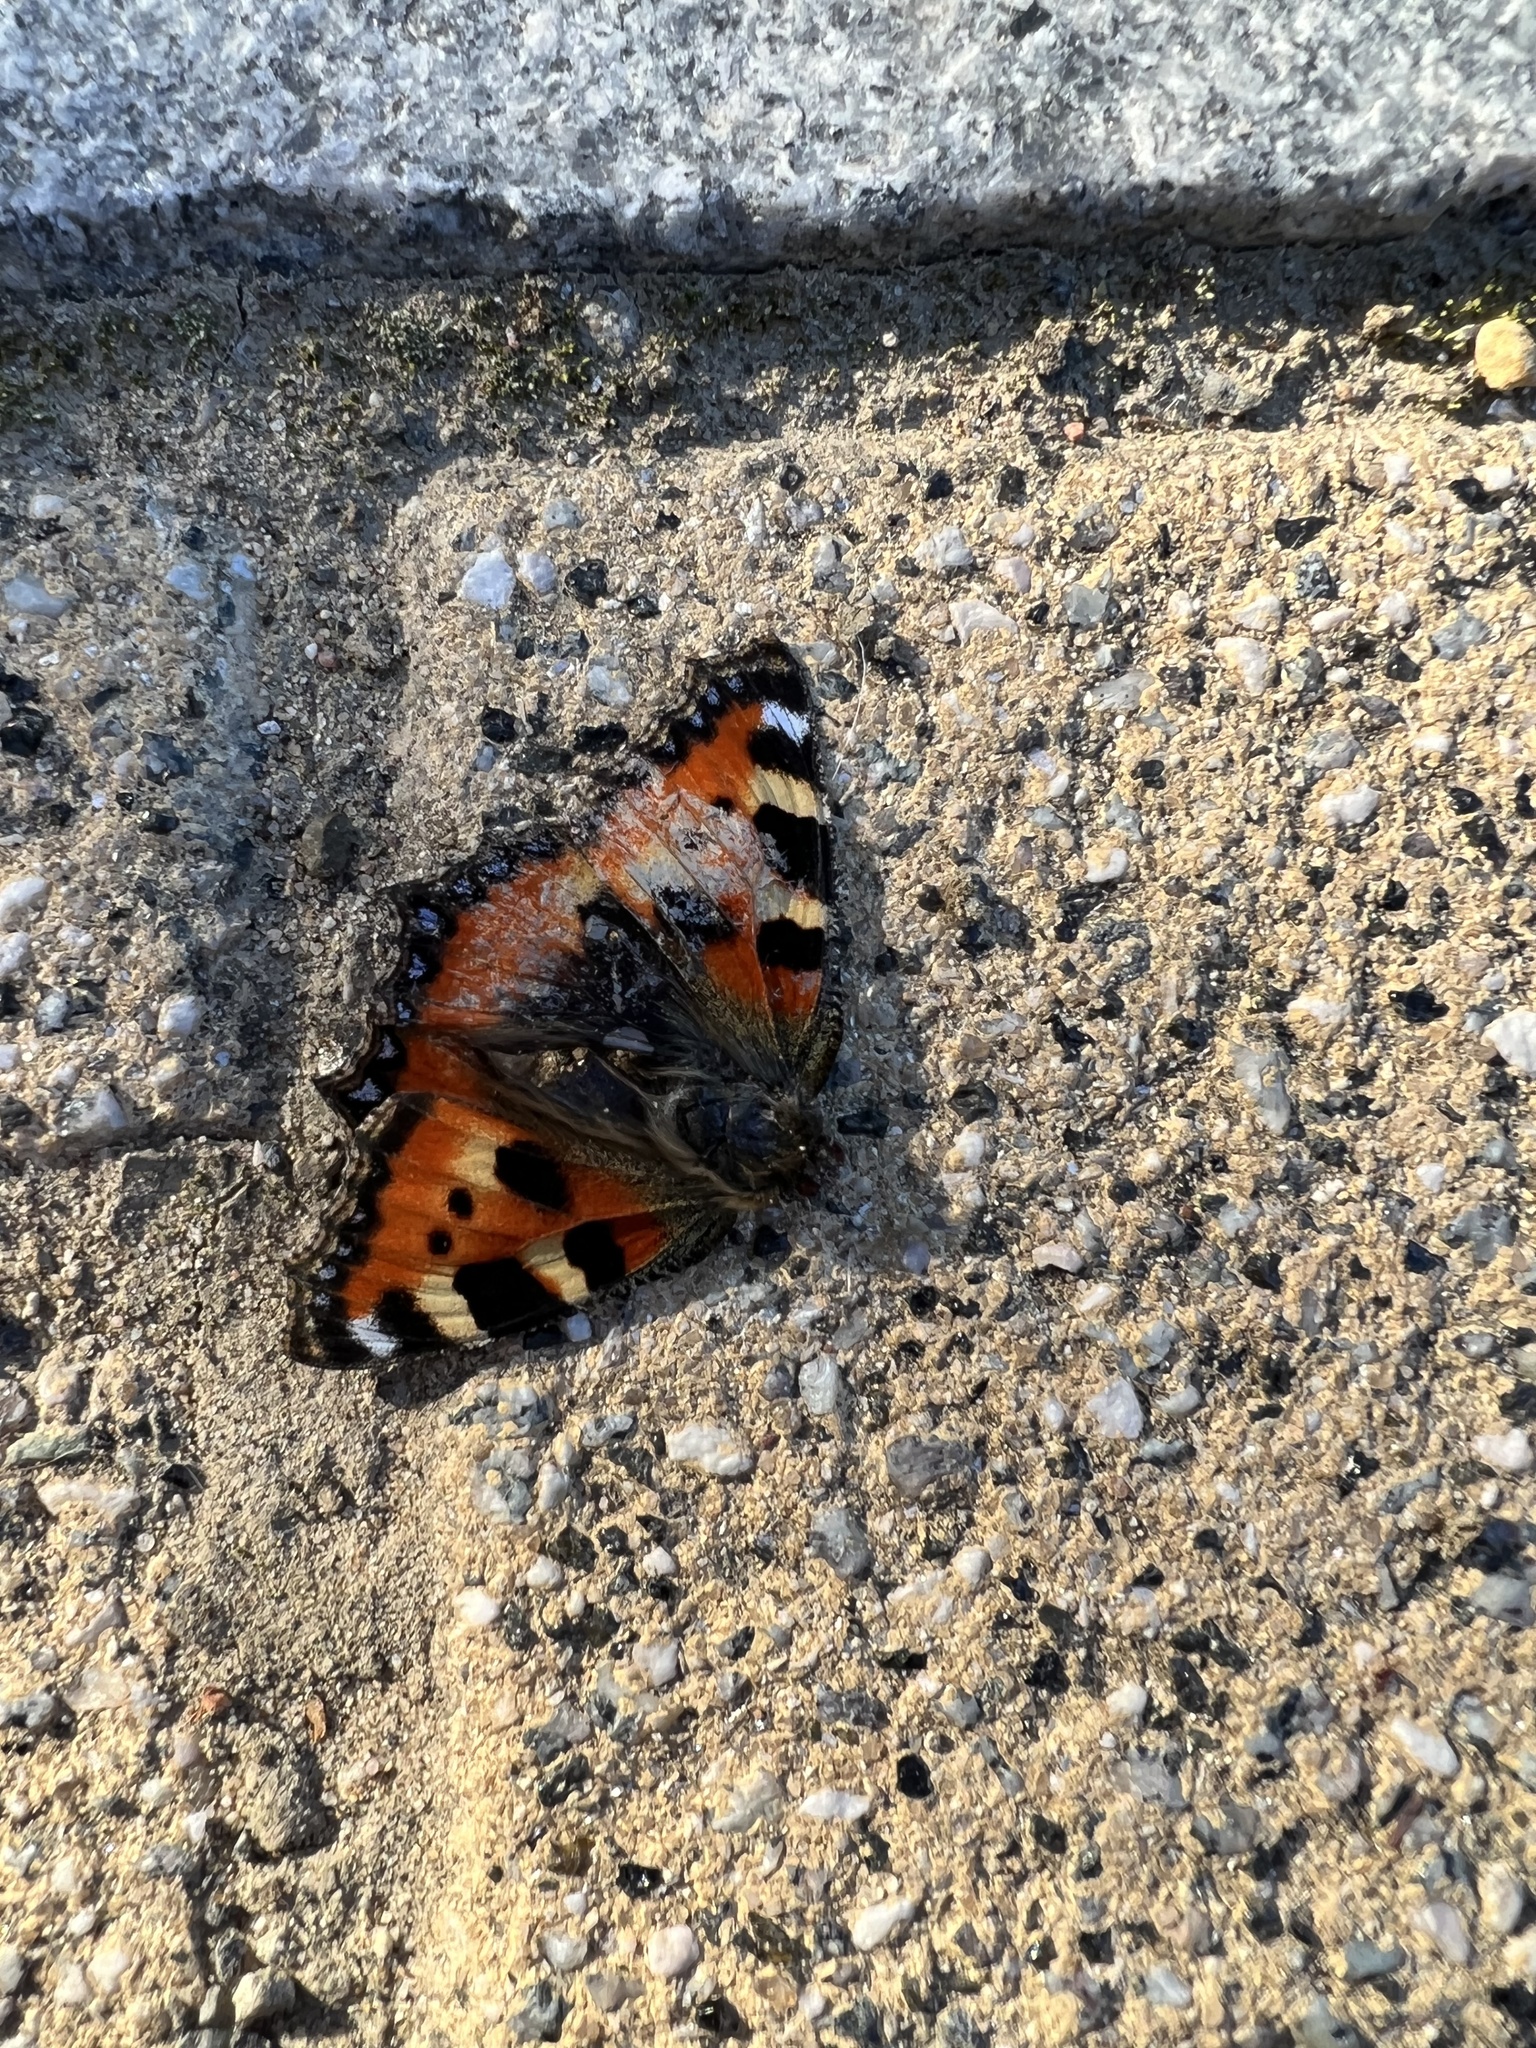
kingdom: Animalia
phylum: Arthropoda
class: Insecta
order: Lepidoptera
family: Nymphalidae
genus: Aglais
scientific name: Aglais urticae
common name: Small tortoiseshell
